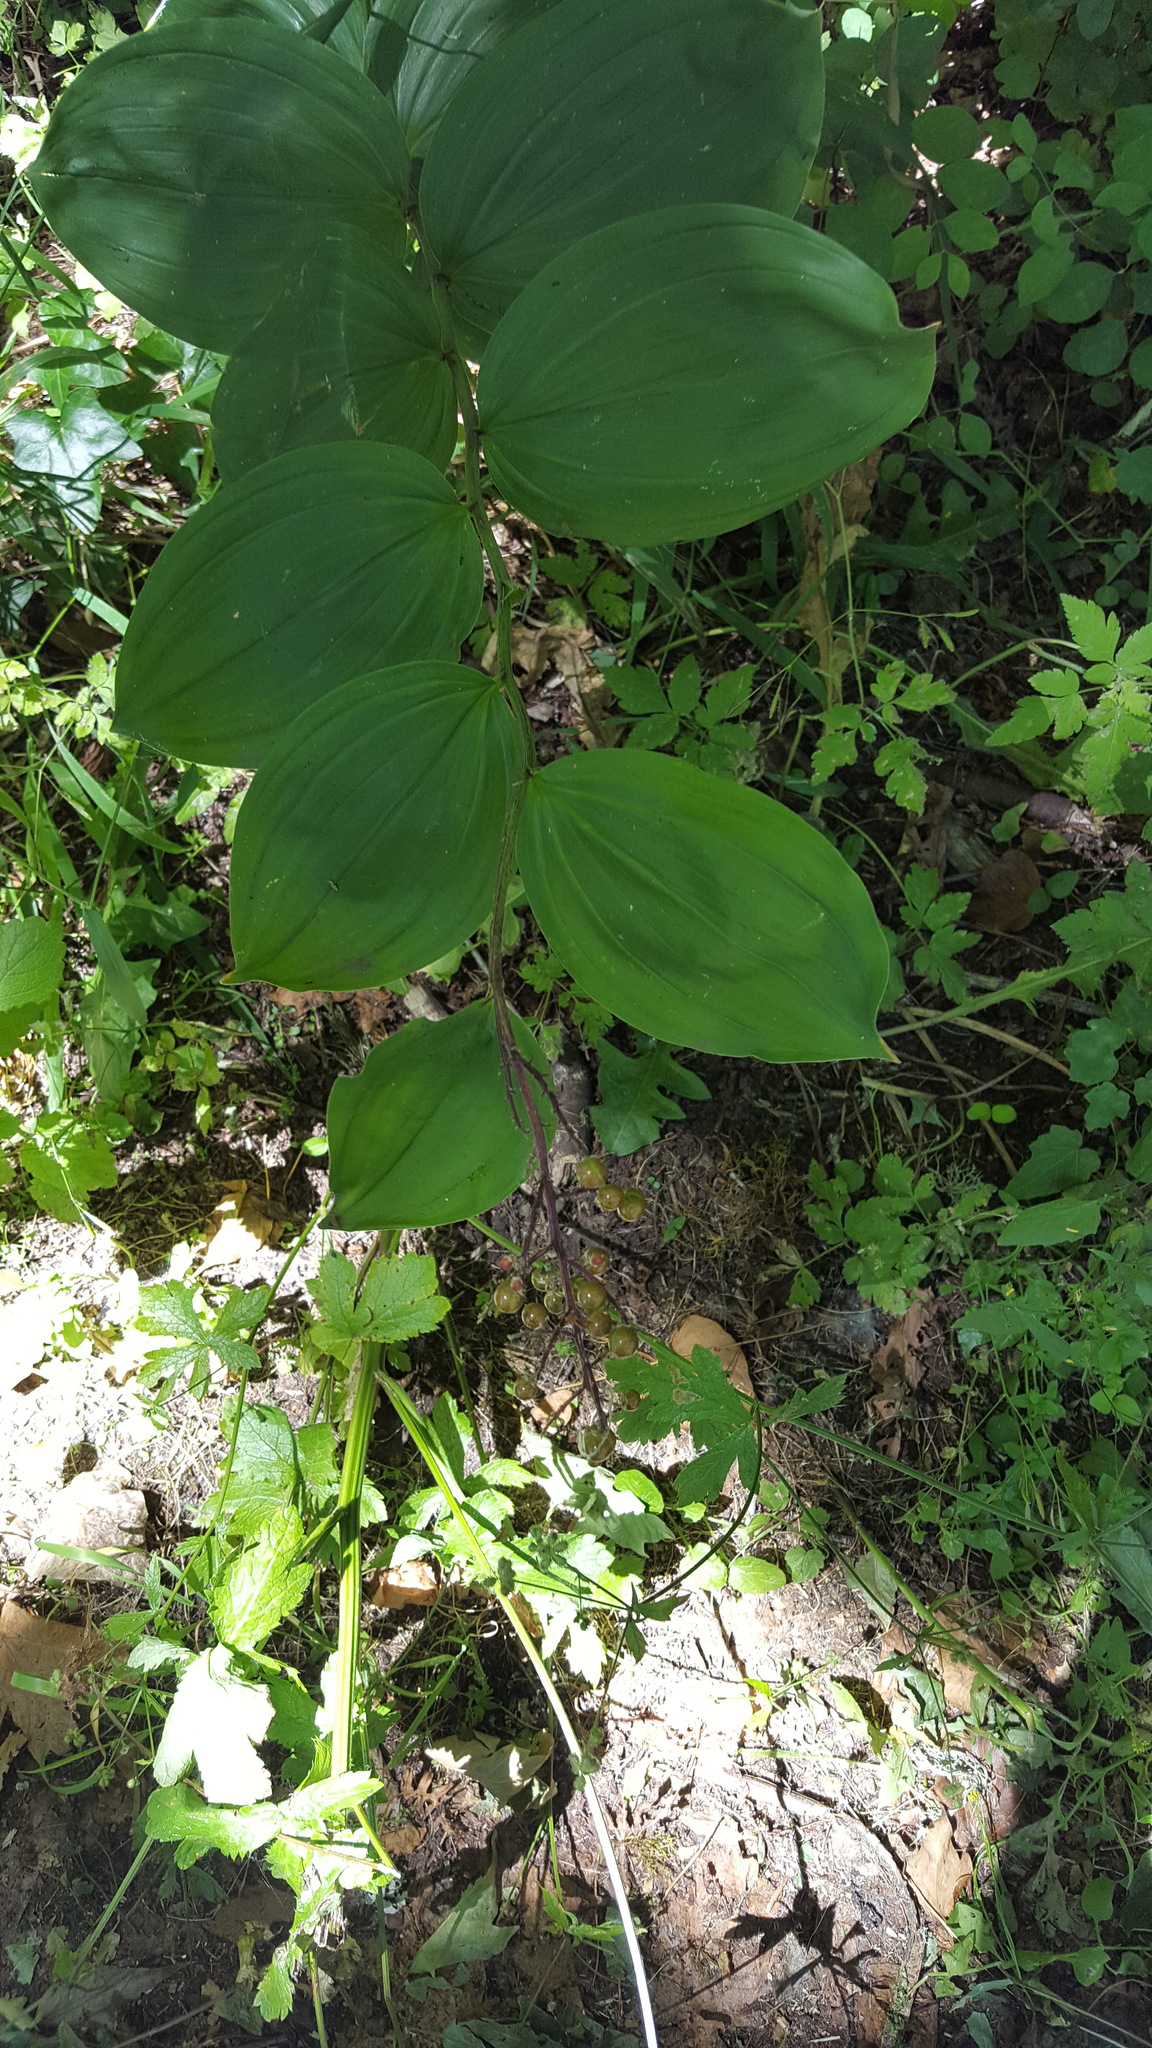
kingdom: Plantae
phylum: Tracheophyta
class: Liliopsida
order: Asparagales
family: Asparagaceae
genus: Maianthemum
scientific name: Maianthemum racemosum
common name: False spikenard
